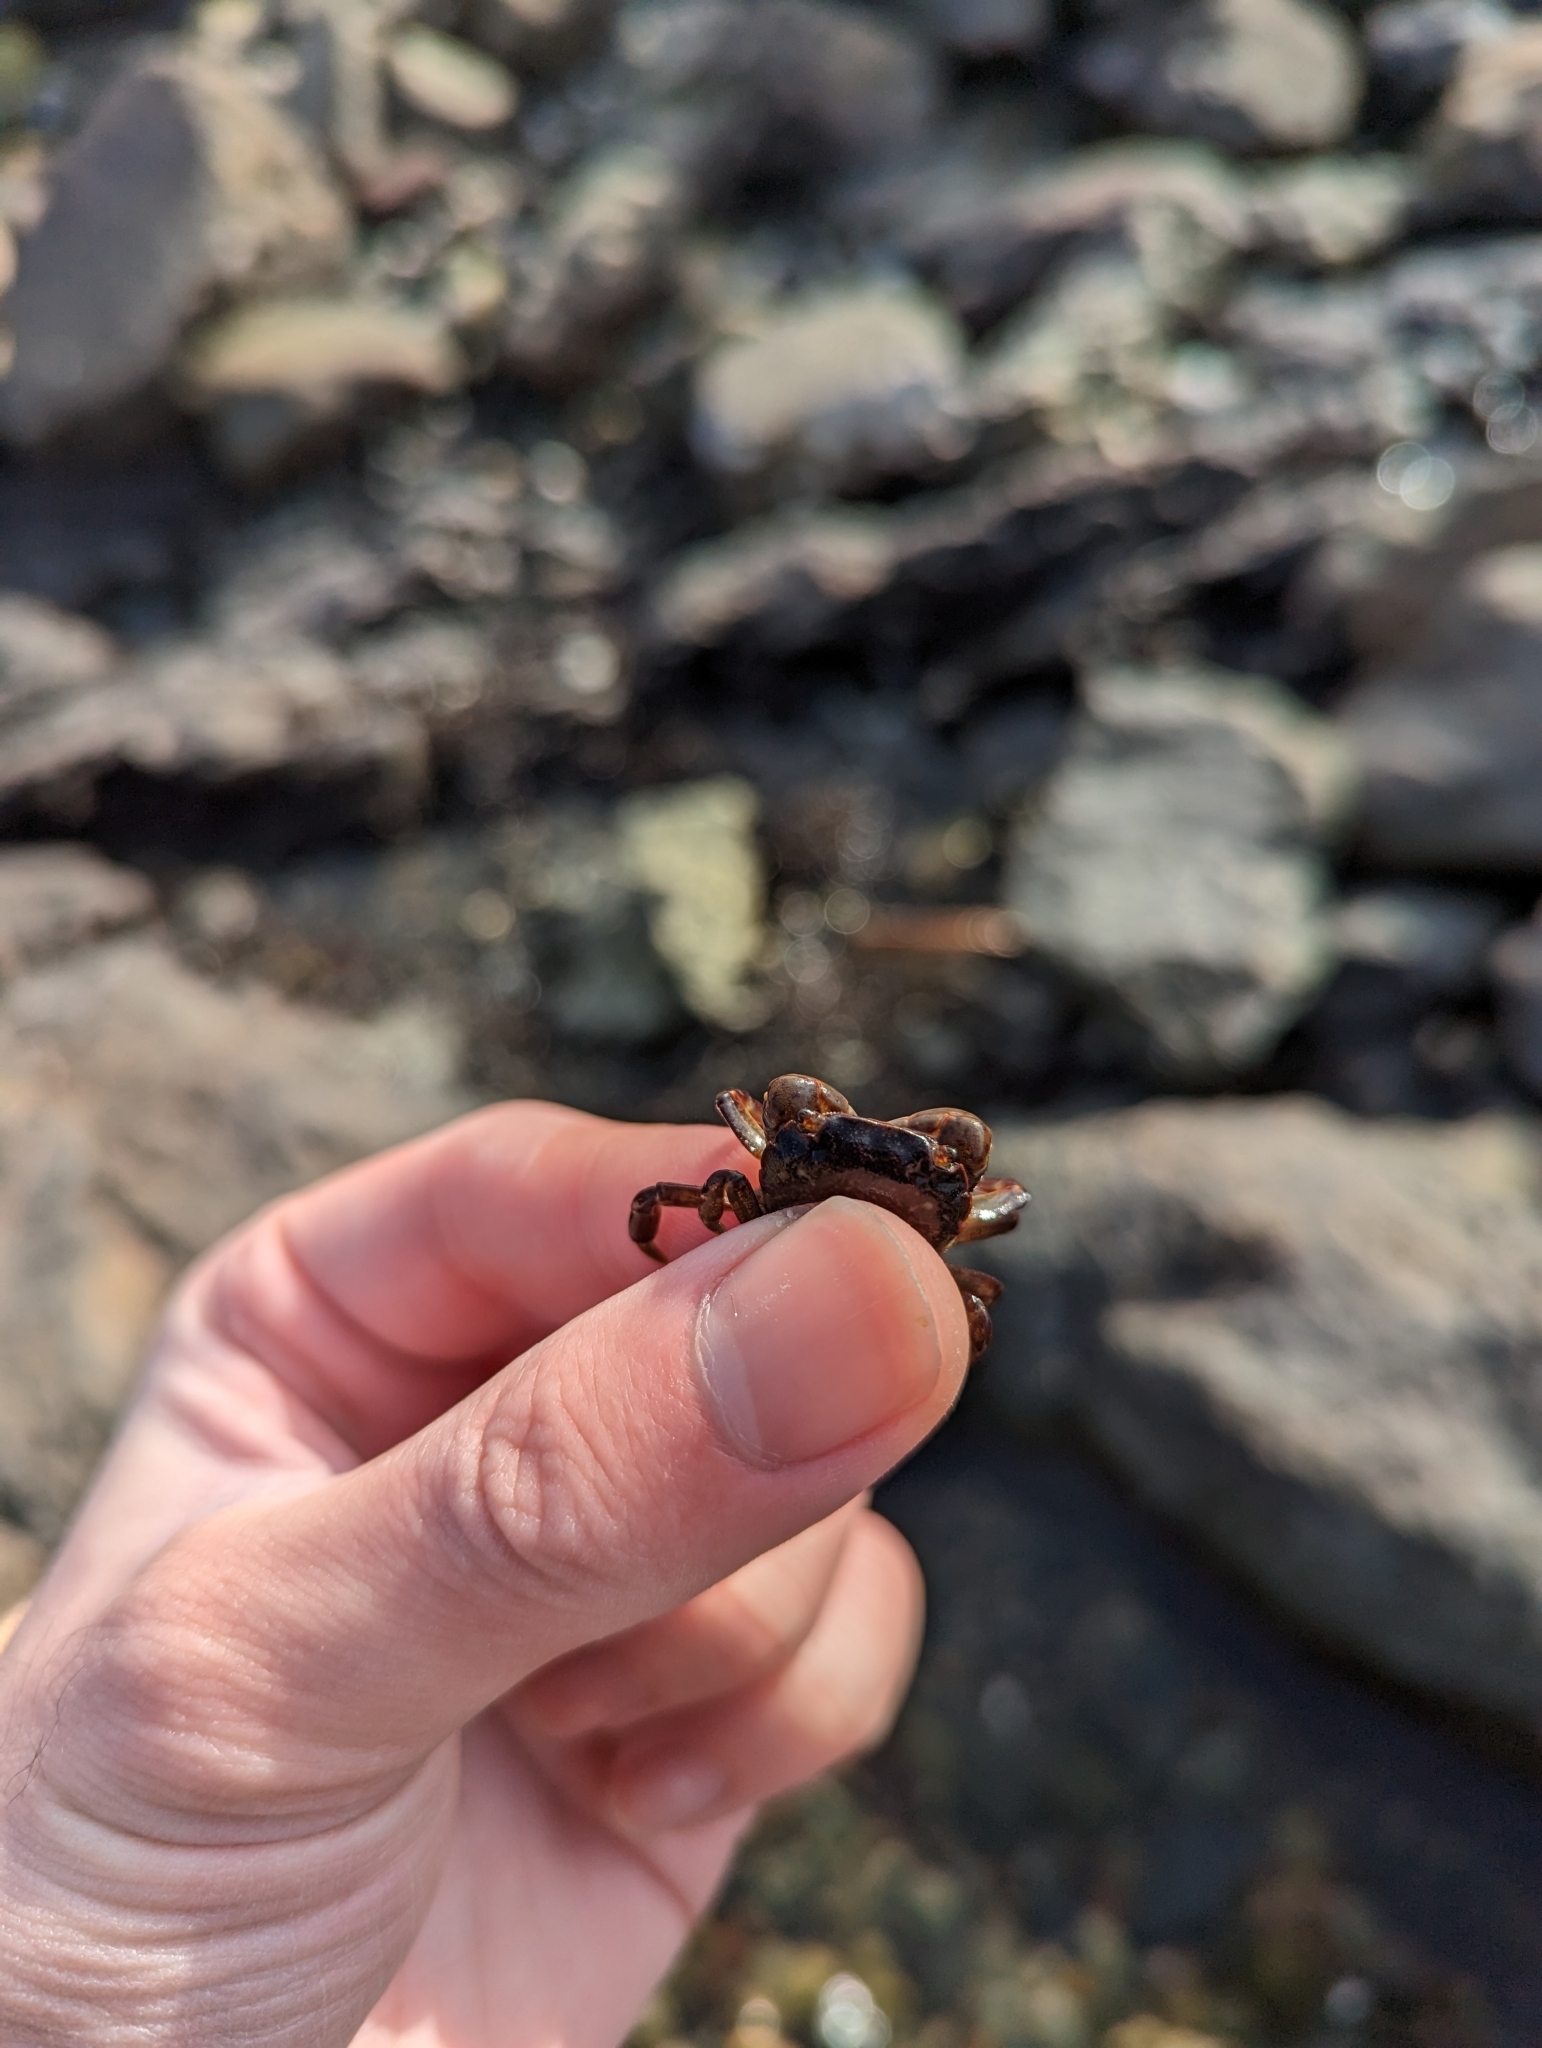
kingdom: Animalia
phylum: Arthropoda
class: Malacostraca
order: Decapoda
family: Varunidae
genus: Hemigrapsus
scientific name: Hemigrapsus nudus
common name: Purple shore crab
